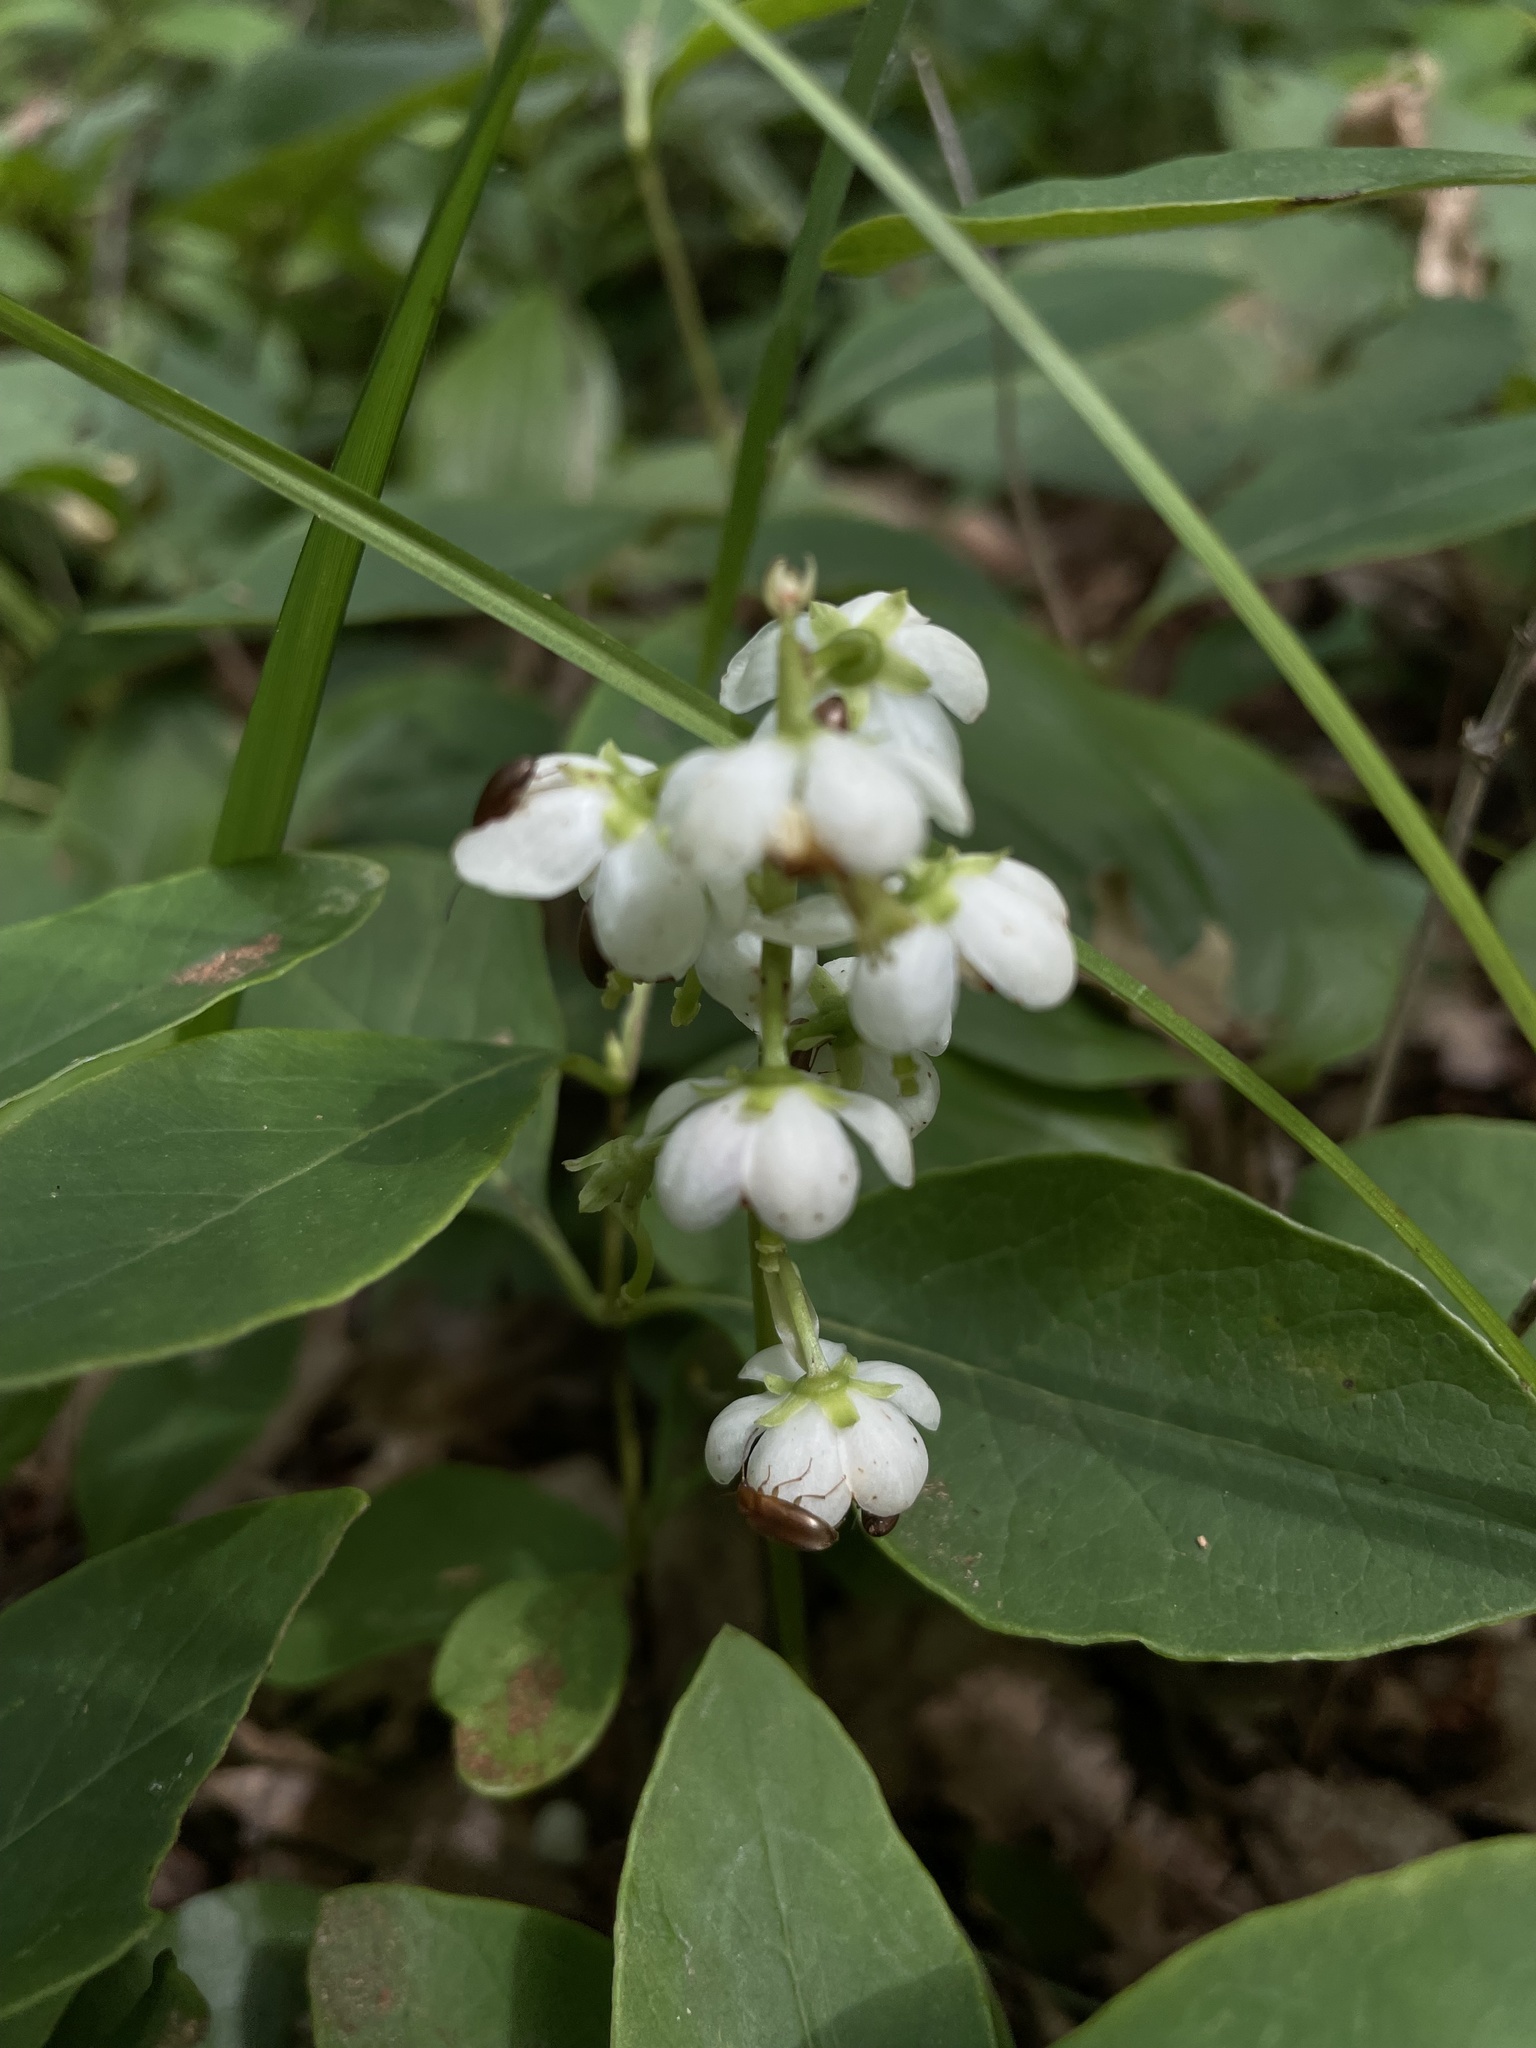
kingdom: Plantae
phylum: Tracheophyta
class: Magnoliopsida
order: Ericales
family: Ericaceae
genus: Pyrola
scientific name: Pyrola americana
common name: American wintergreen
